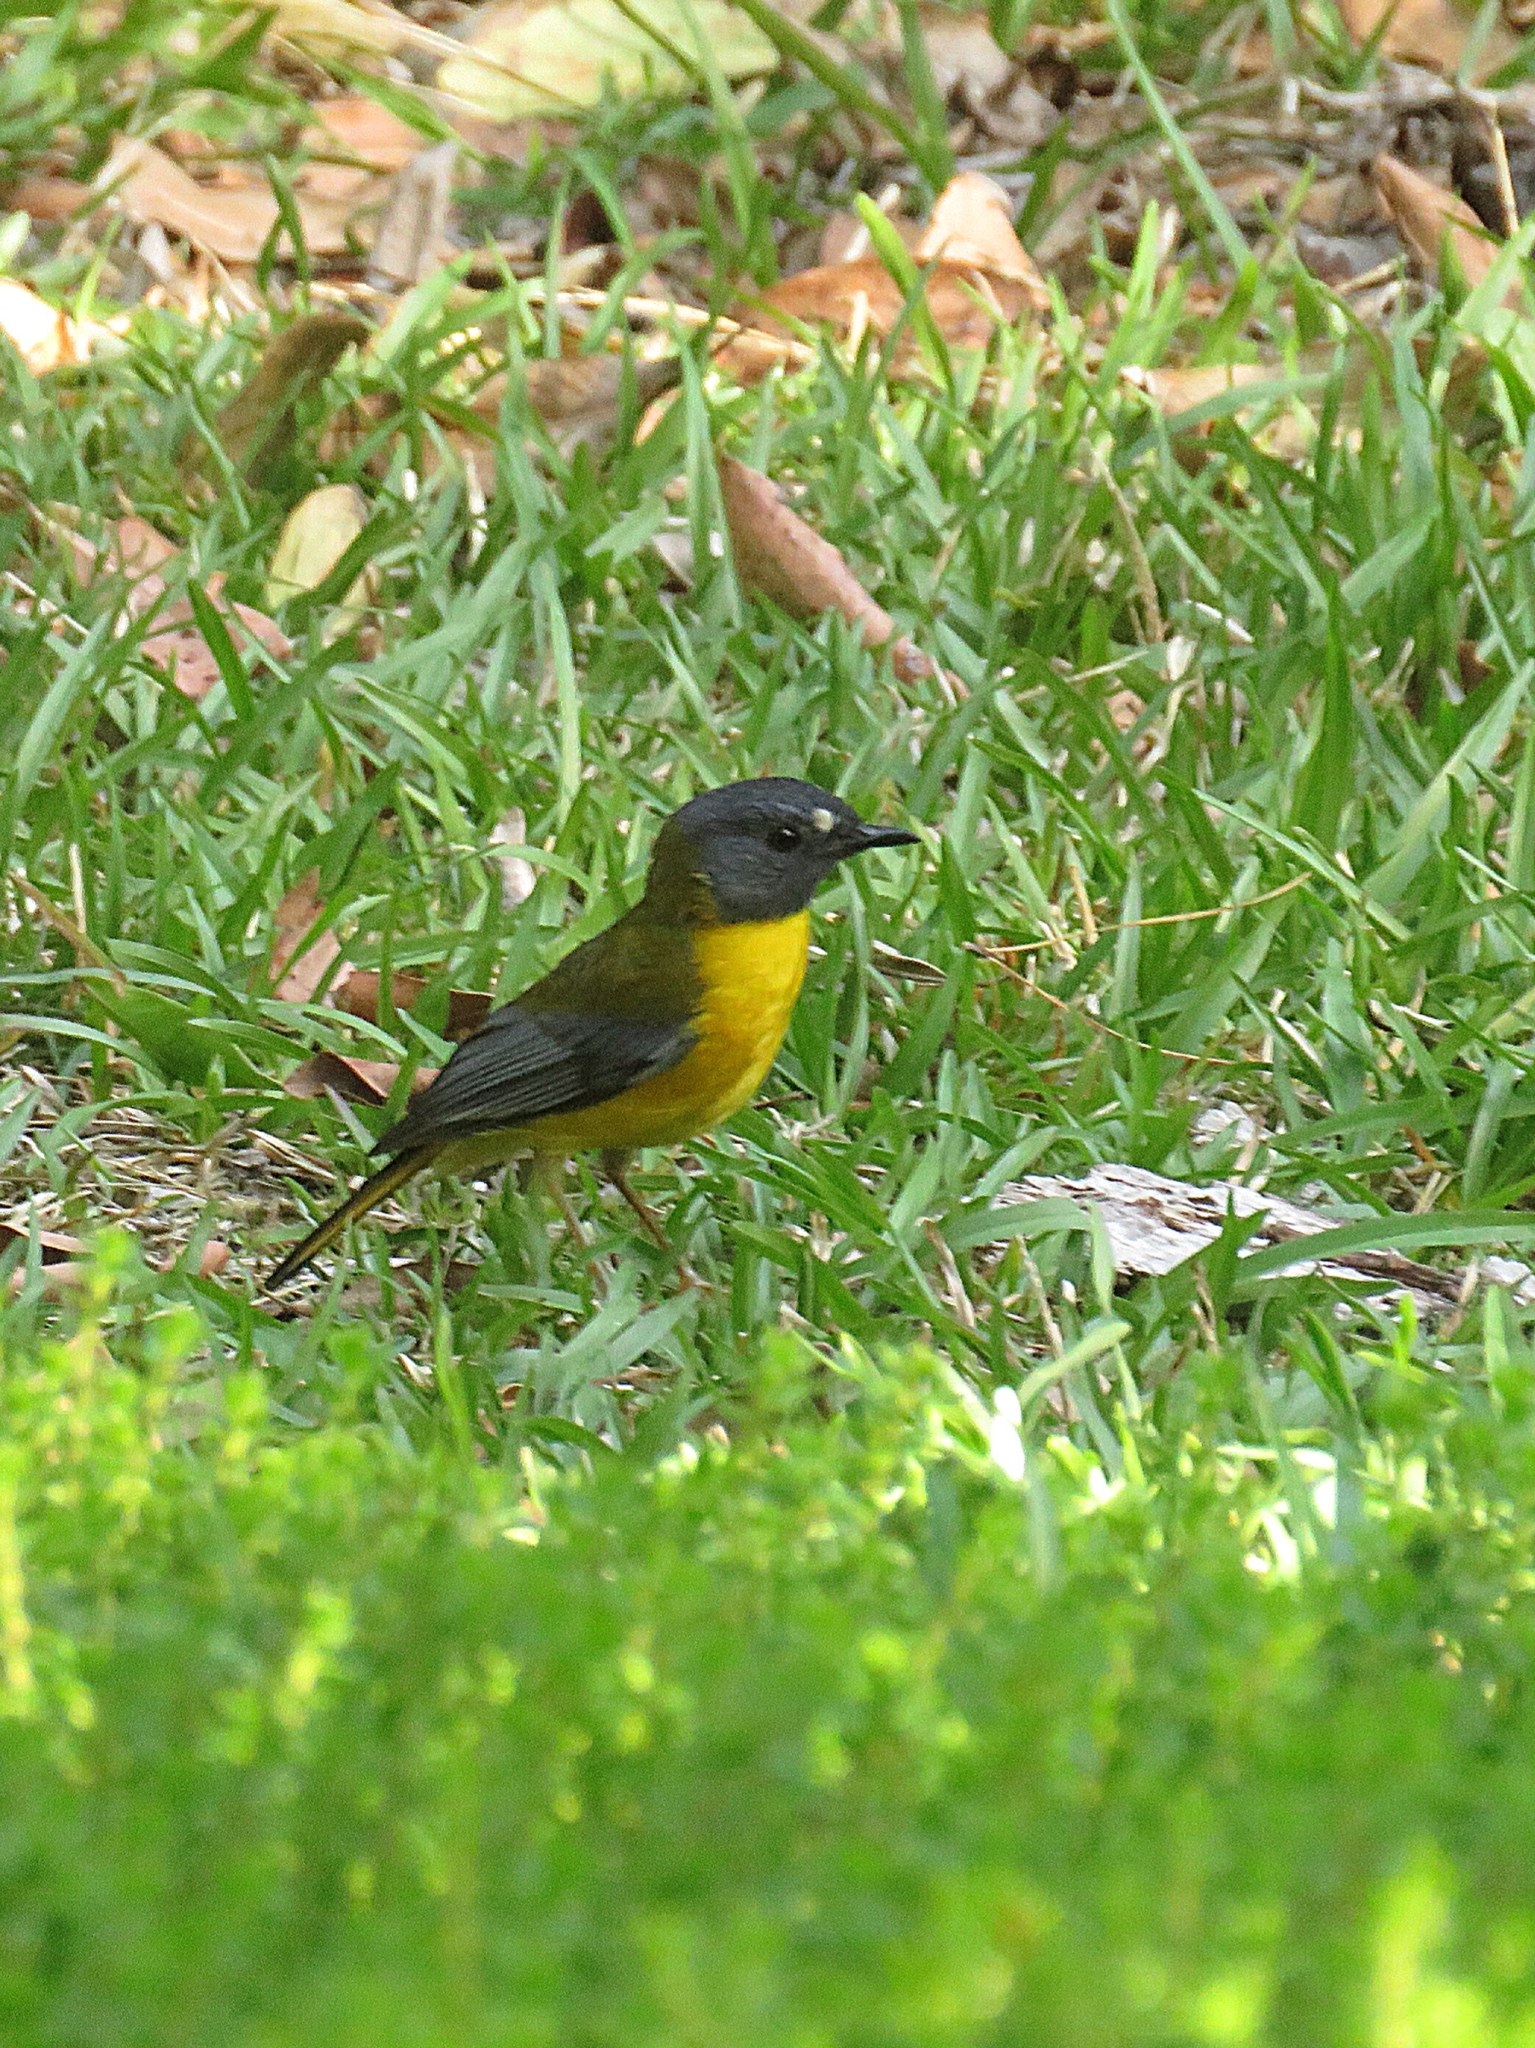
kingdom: Animalia
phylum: Chordata
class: Aves
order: Passeriformes
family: Muscicapidae
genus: Pogonocichla
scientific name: Pogonocichla stellata
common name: White-starred robin
